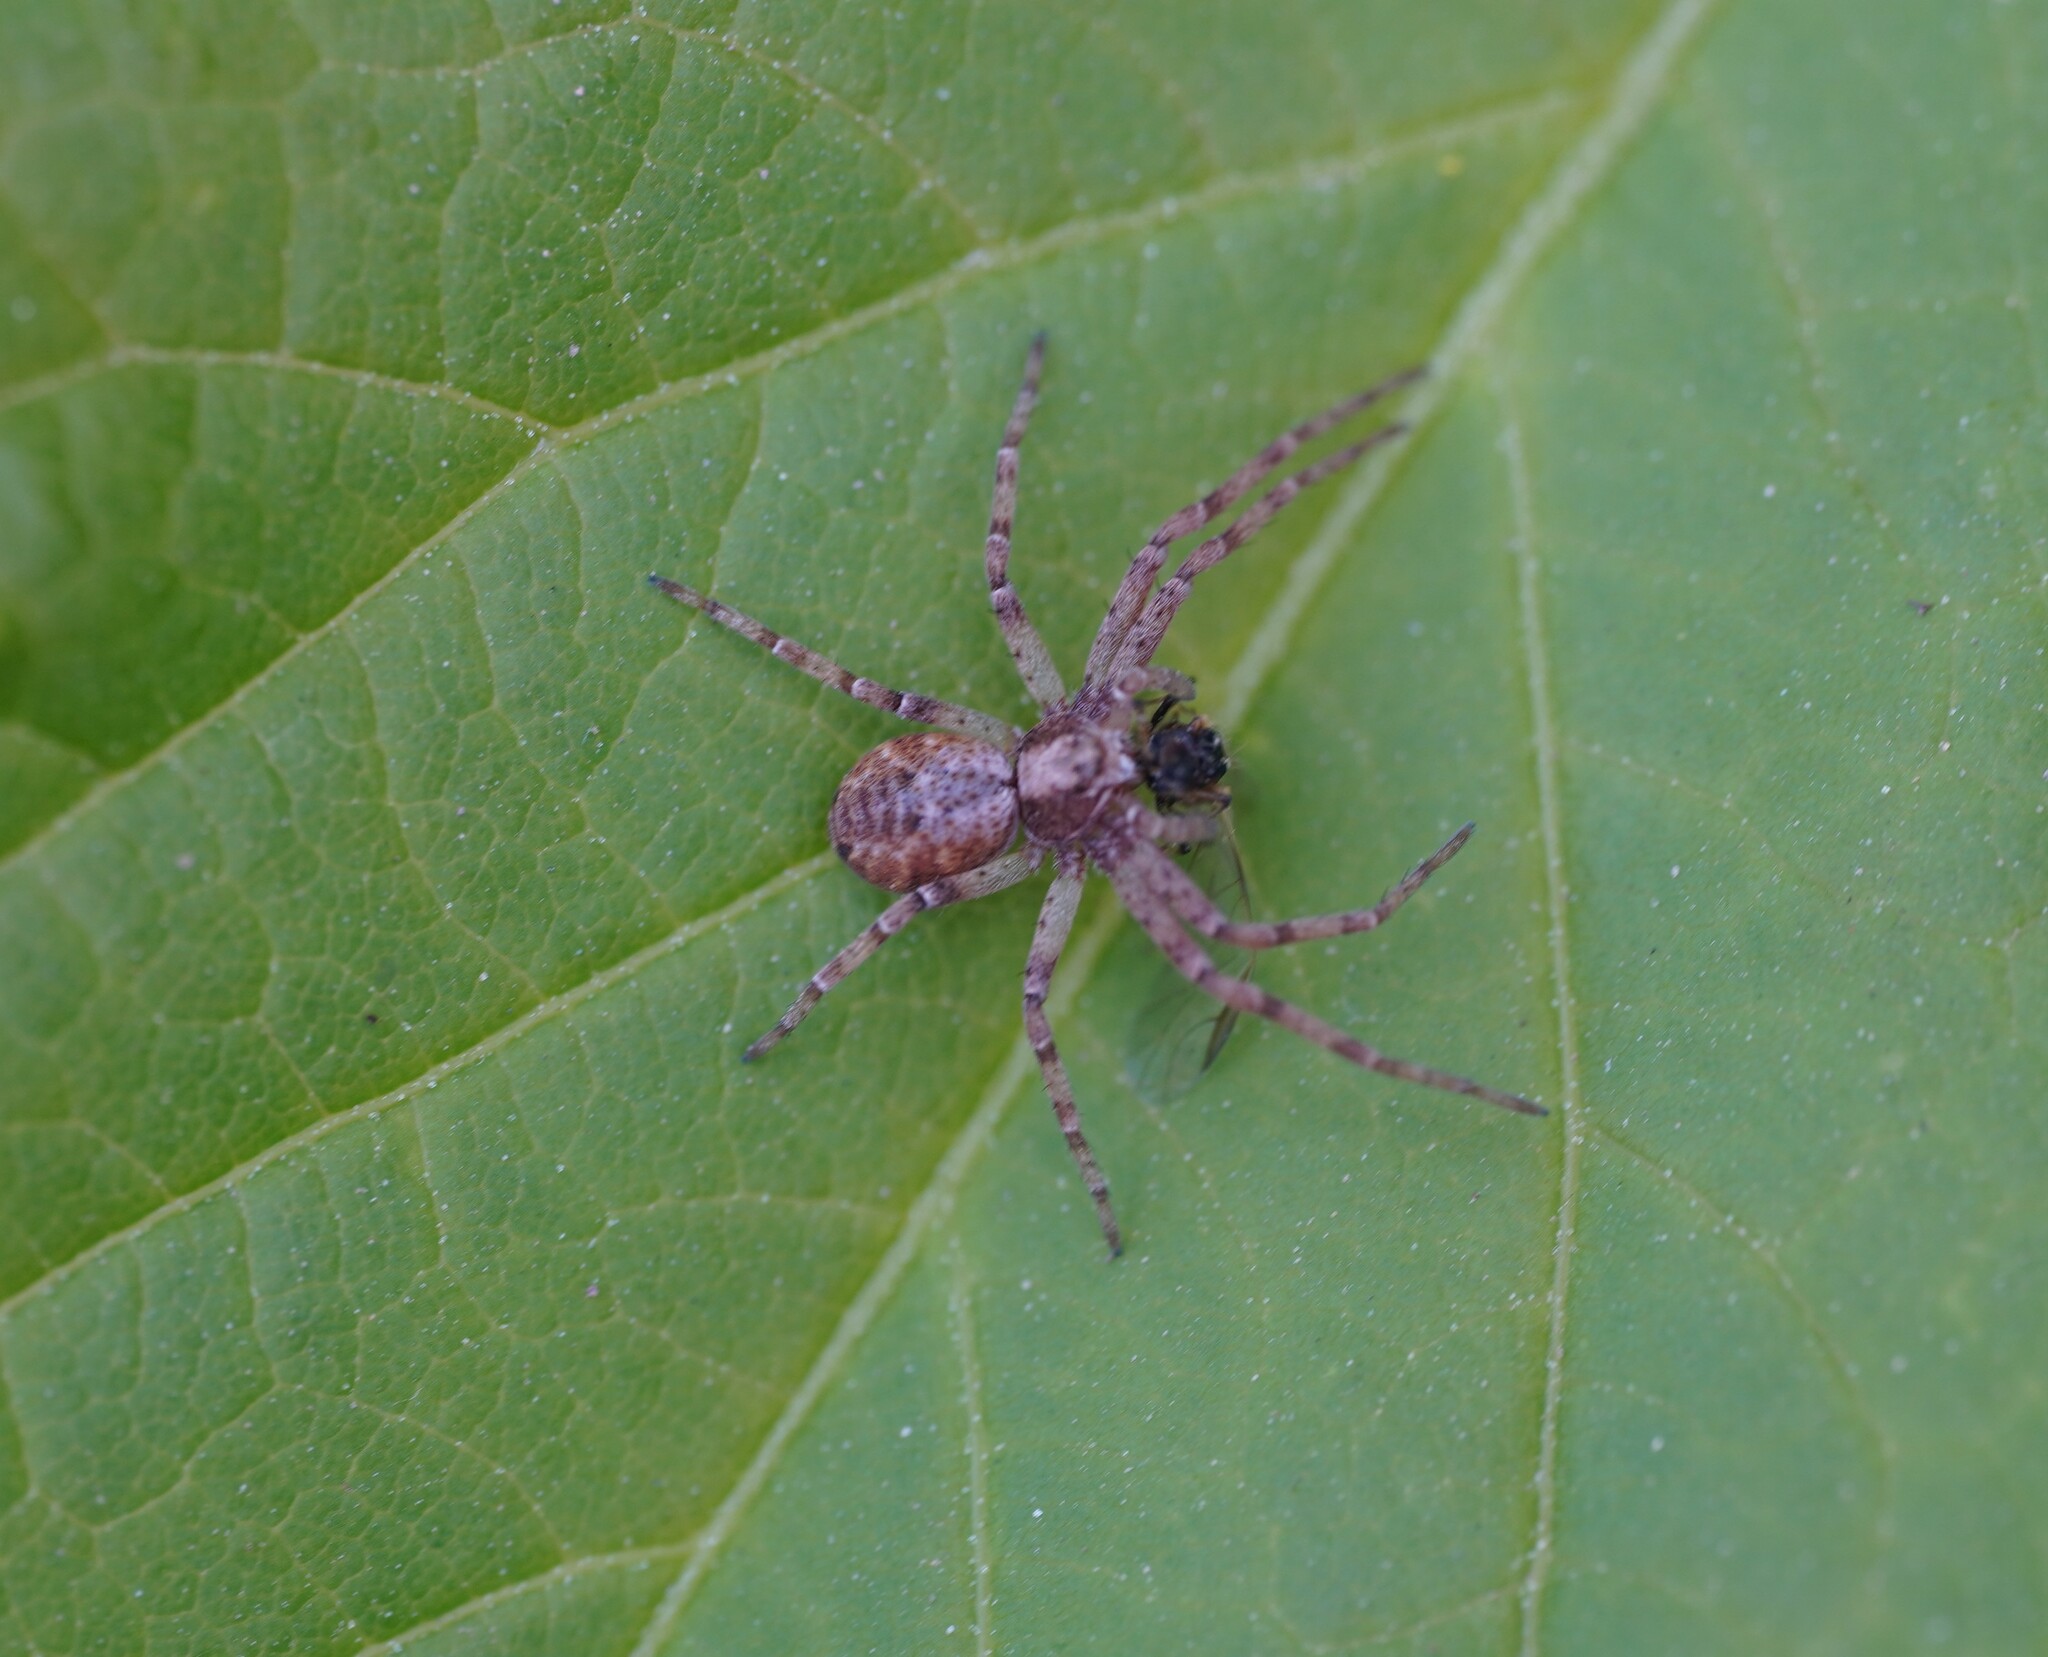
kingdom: Animalia
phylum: Arthropoda
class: Arachnida
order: Araneae
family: Philodromidae
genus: Philodromus
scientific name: Philodromus
